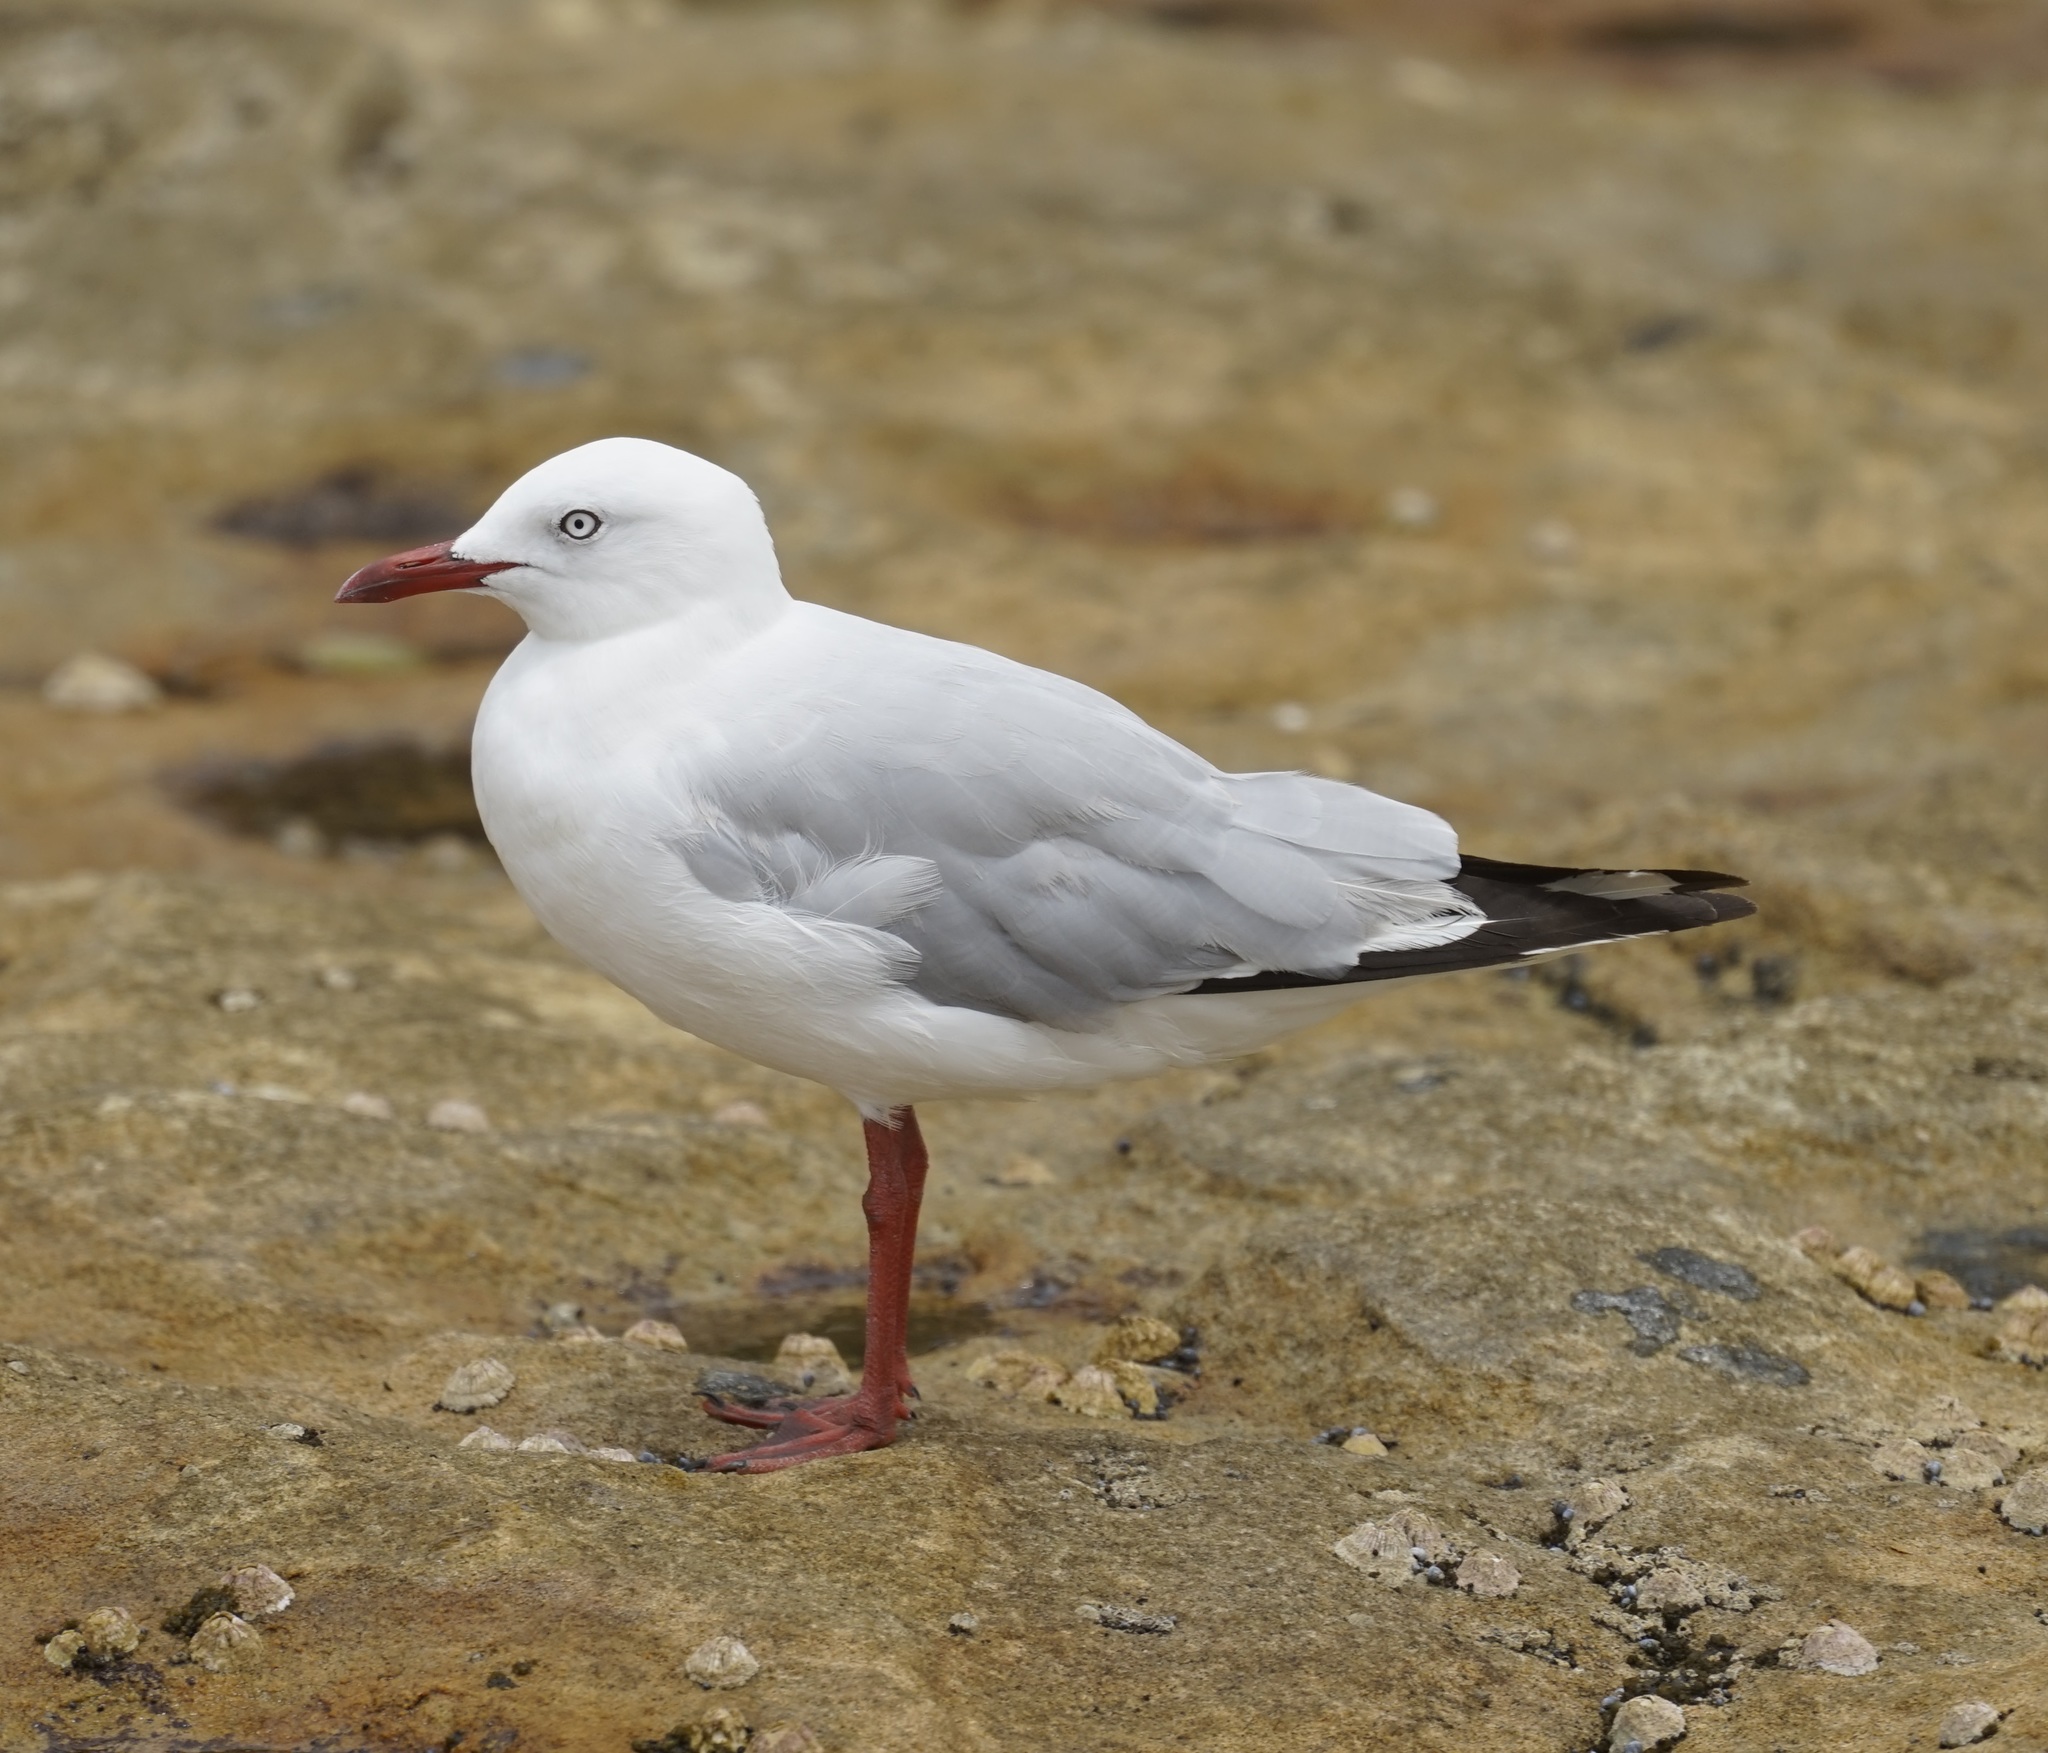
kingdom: Animalia
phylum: Chordata
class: Aves
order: Charadriiformes
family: Laridae
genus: Chroicocephalus
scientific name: Chroicocephalus novaehollandiae
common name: Silver gull
